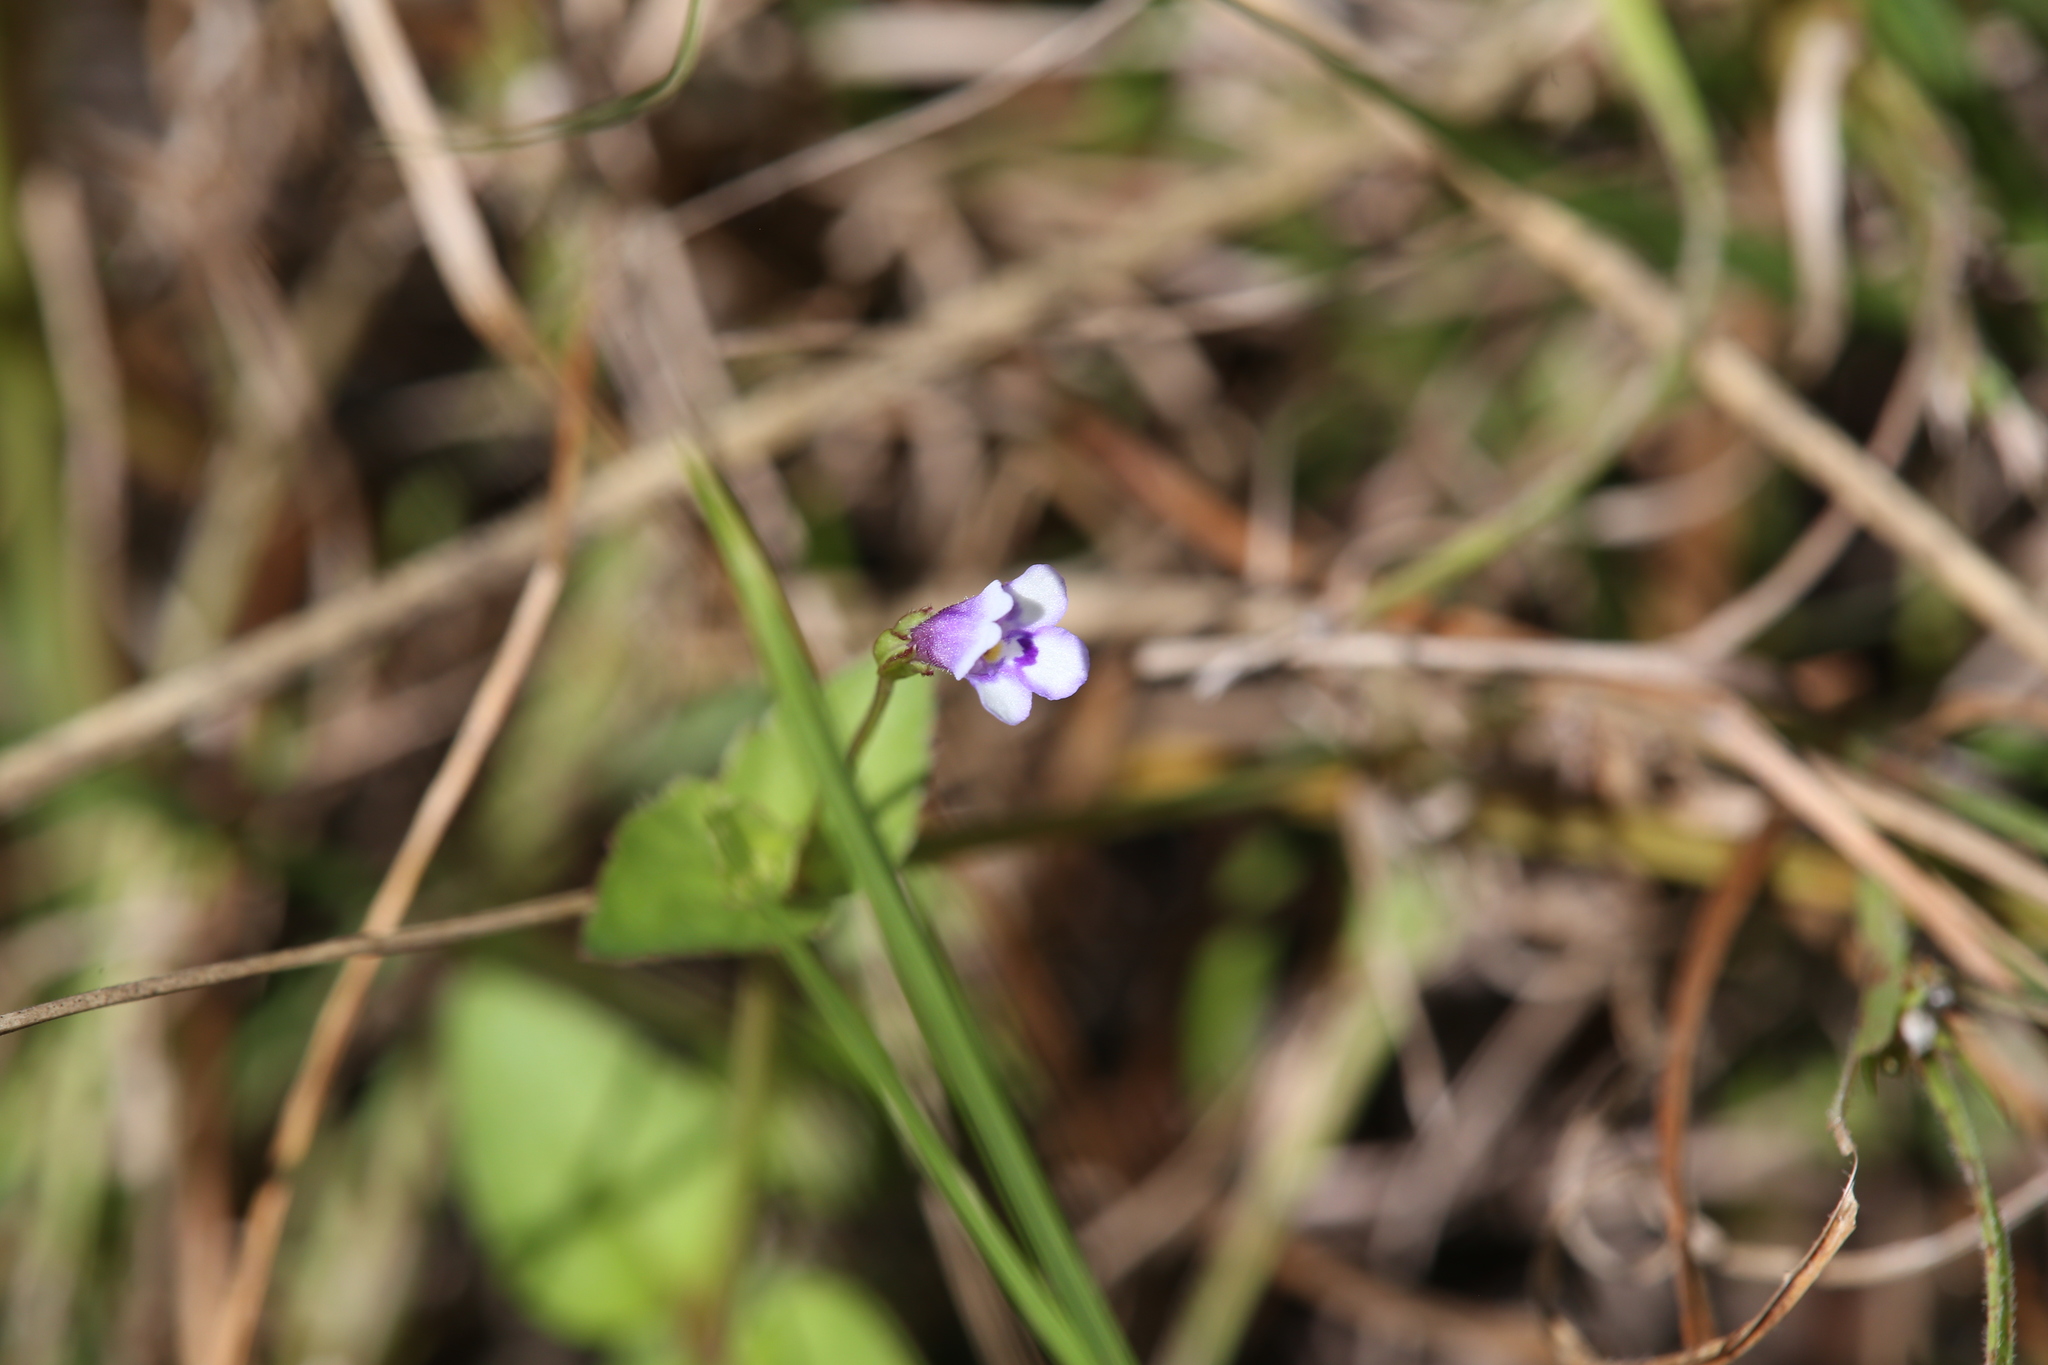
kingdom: Plantae
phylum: Tracheophyta
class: Magnoliopsida
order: Lamiales
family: Linderniaceae
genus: Torenia
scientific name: Torenia crustacea
